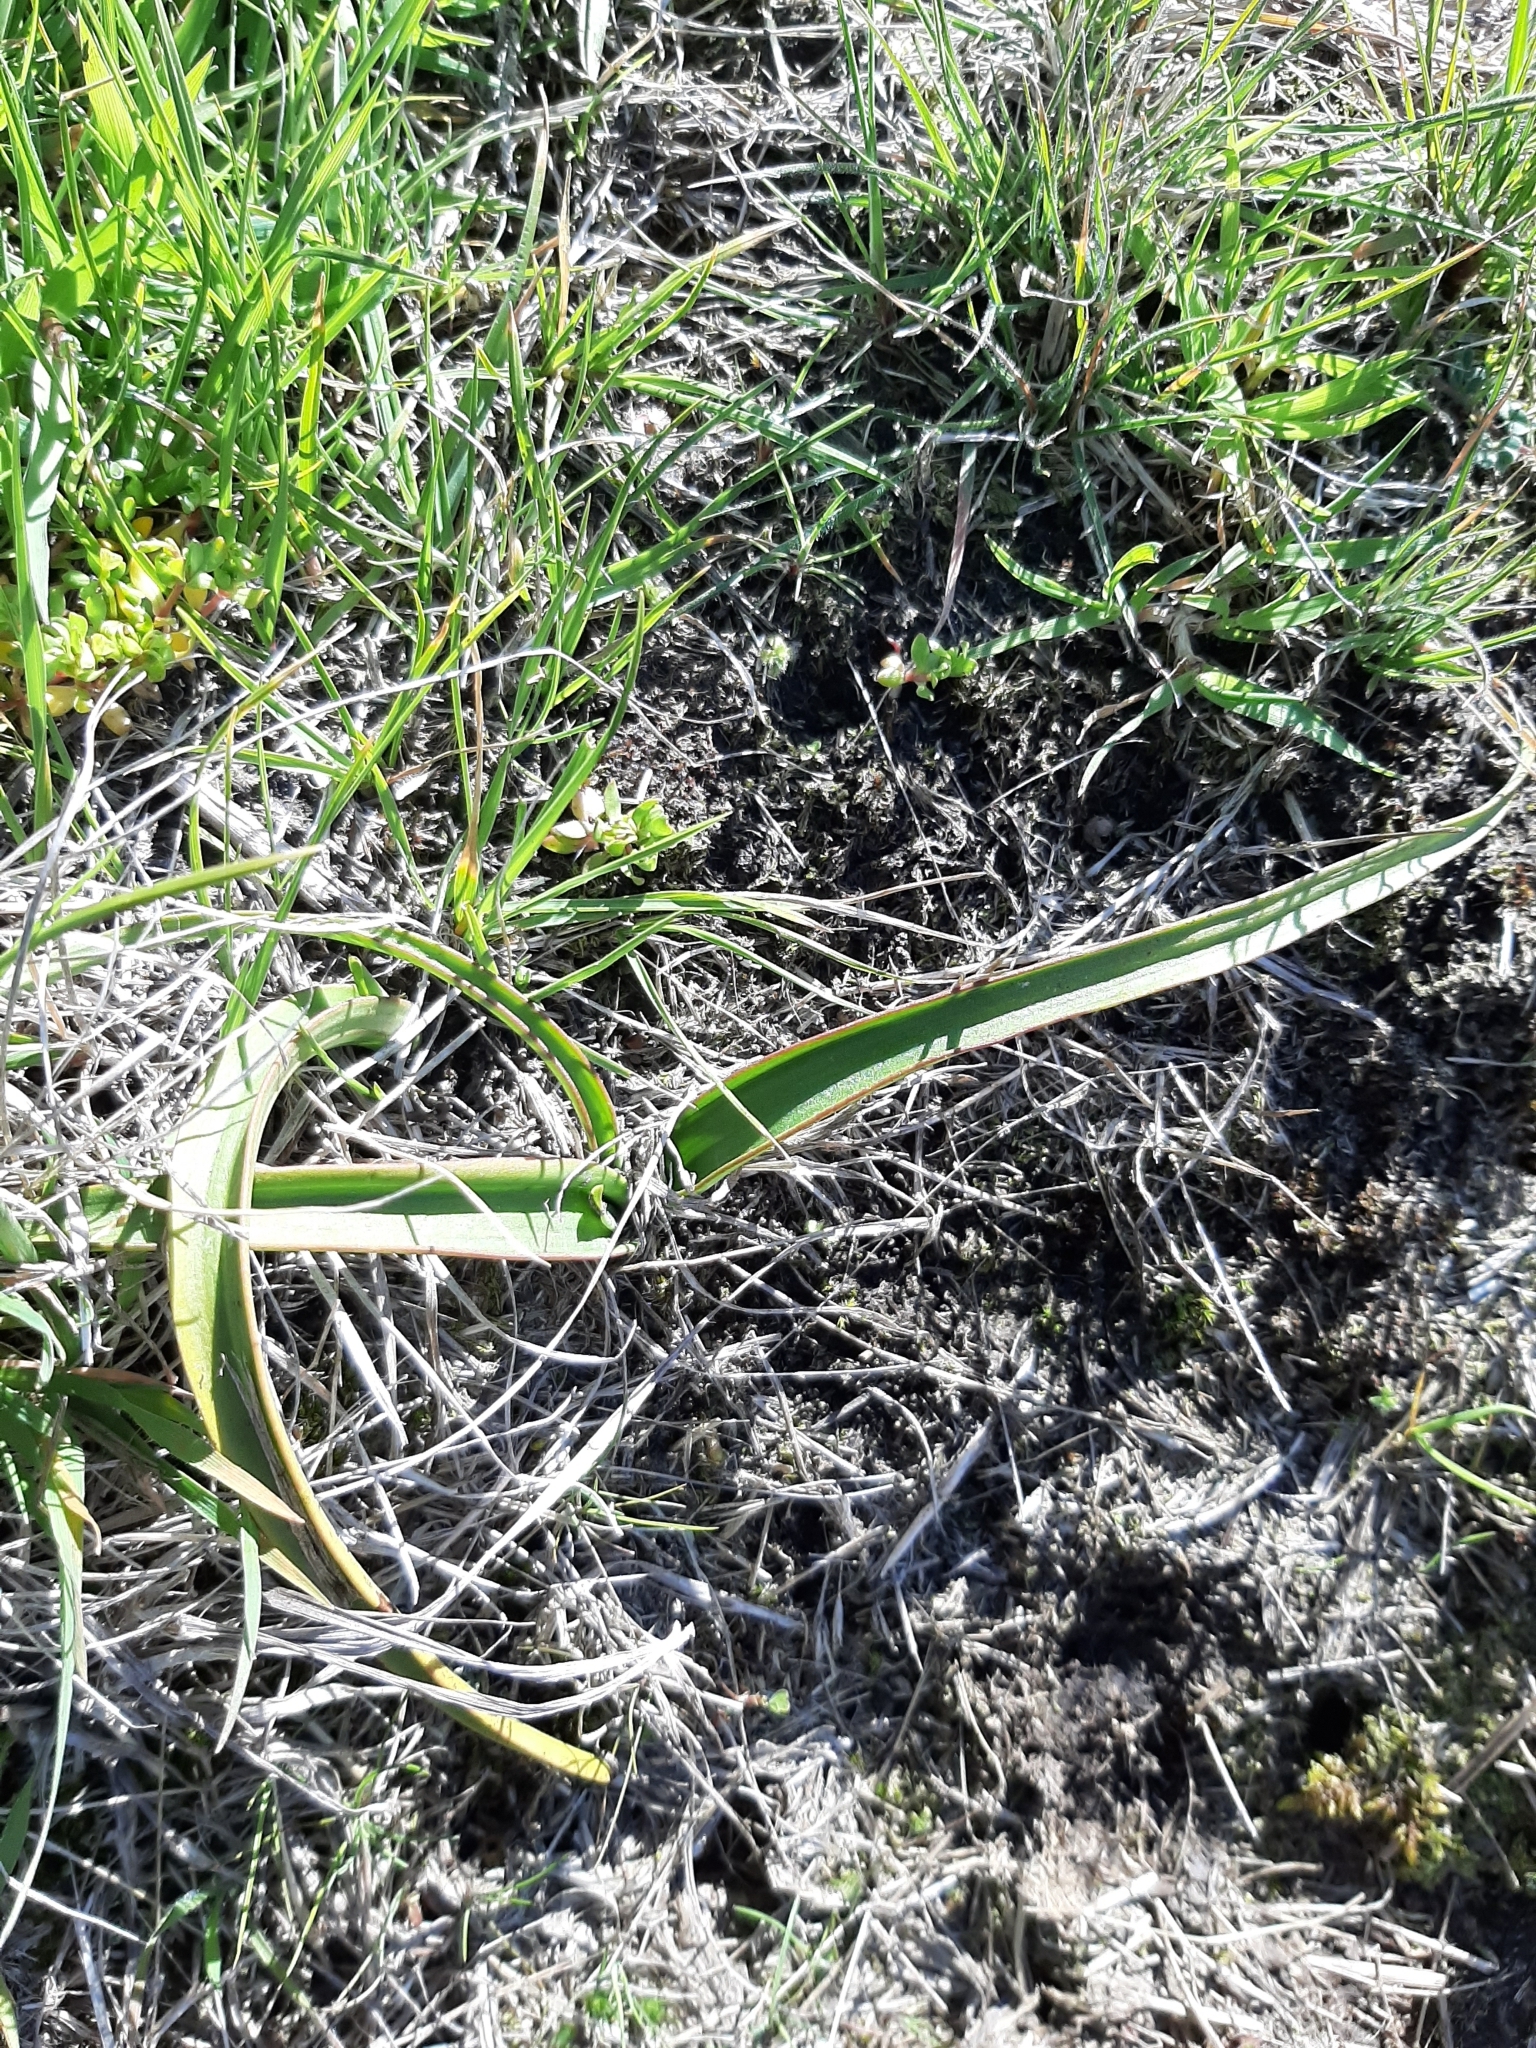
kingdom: Plantae
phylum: Tracheophyta
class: Liliopsida
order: Asparagales
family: Orchidaceae
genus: Thelymitra
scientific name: Thelymitra longifolia
